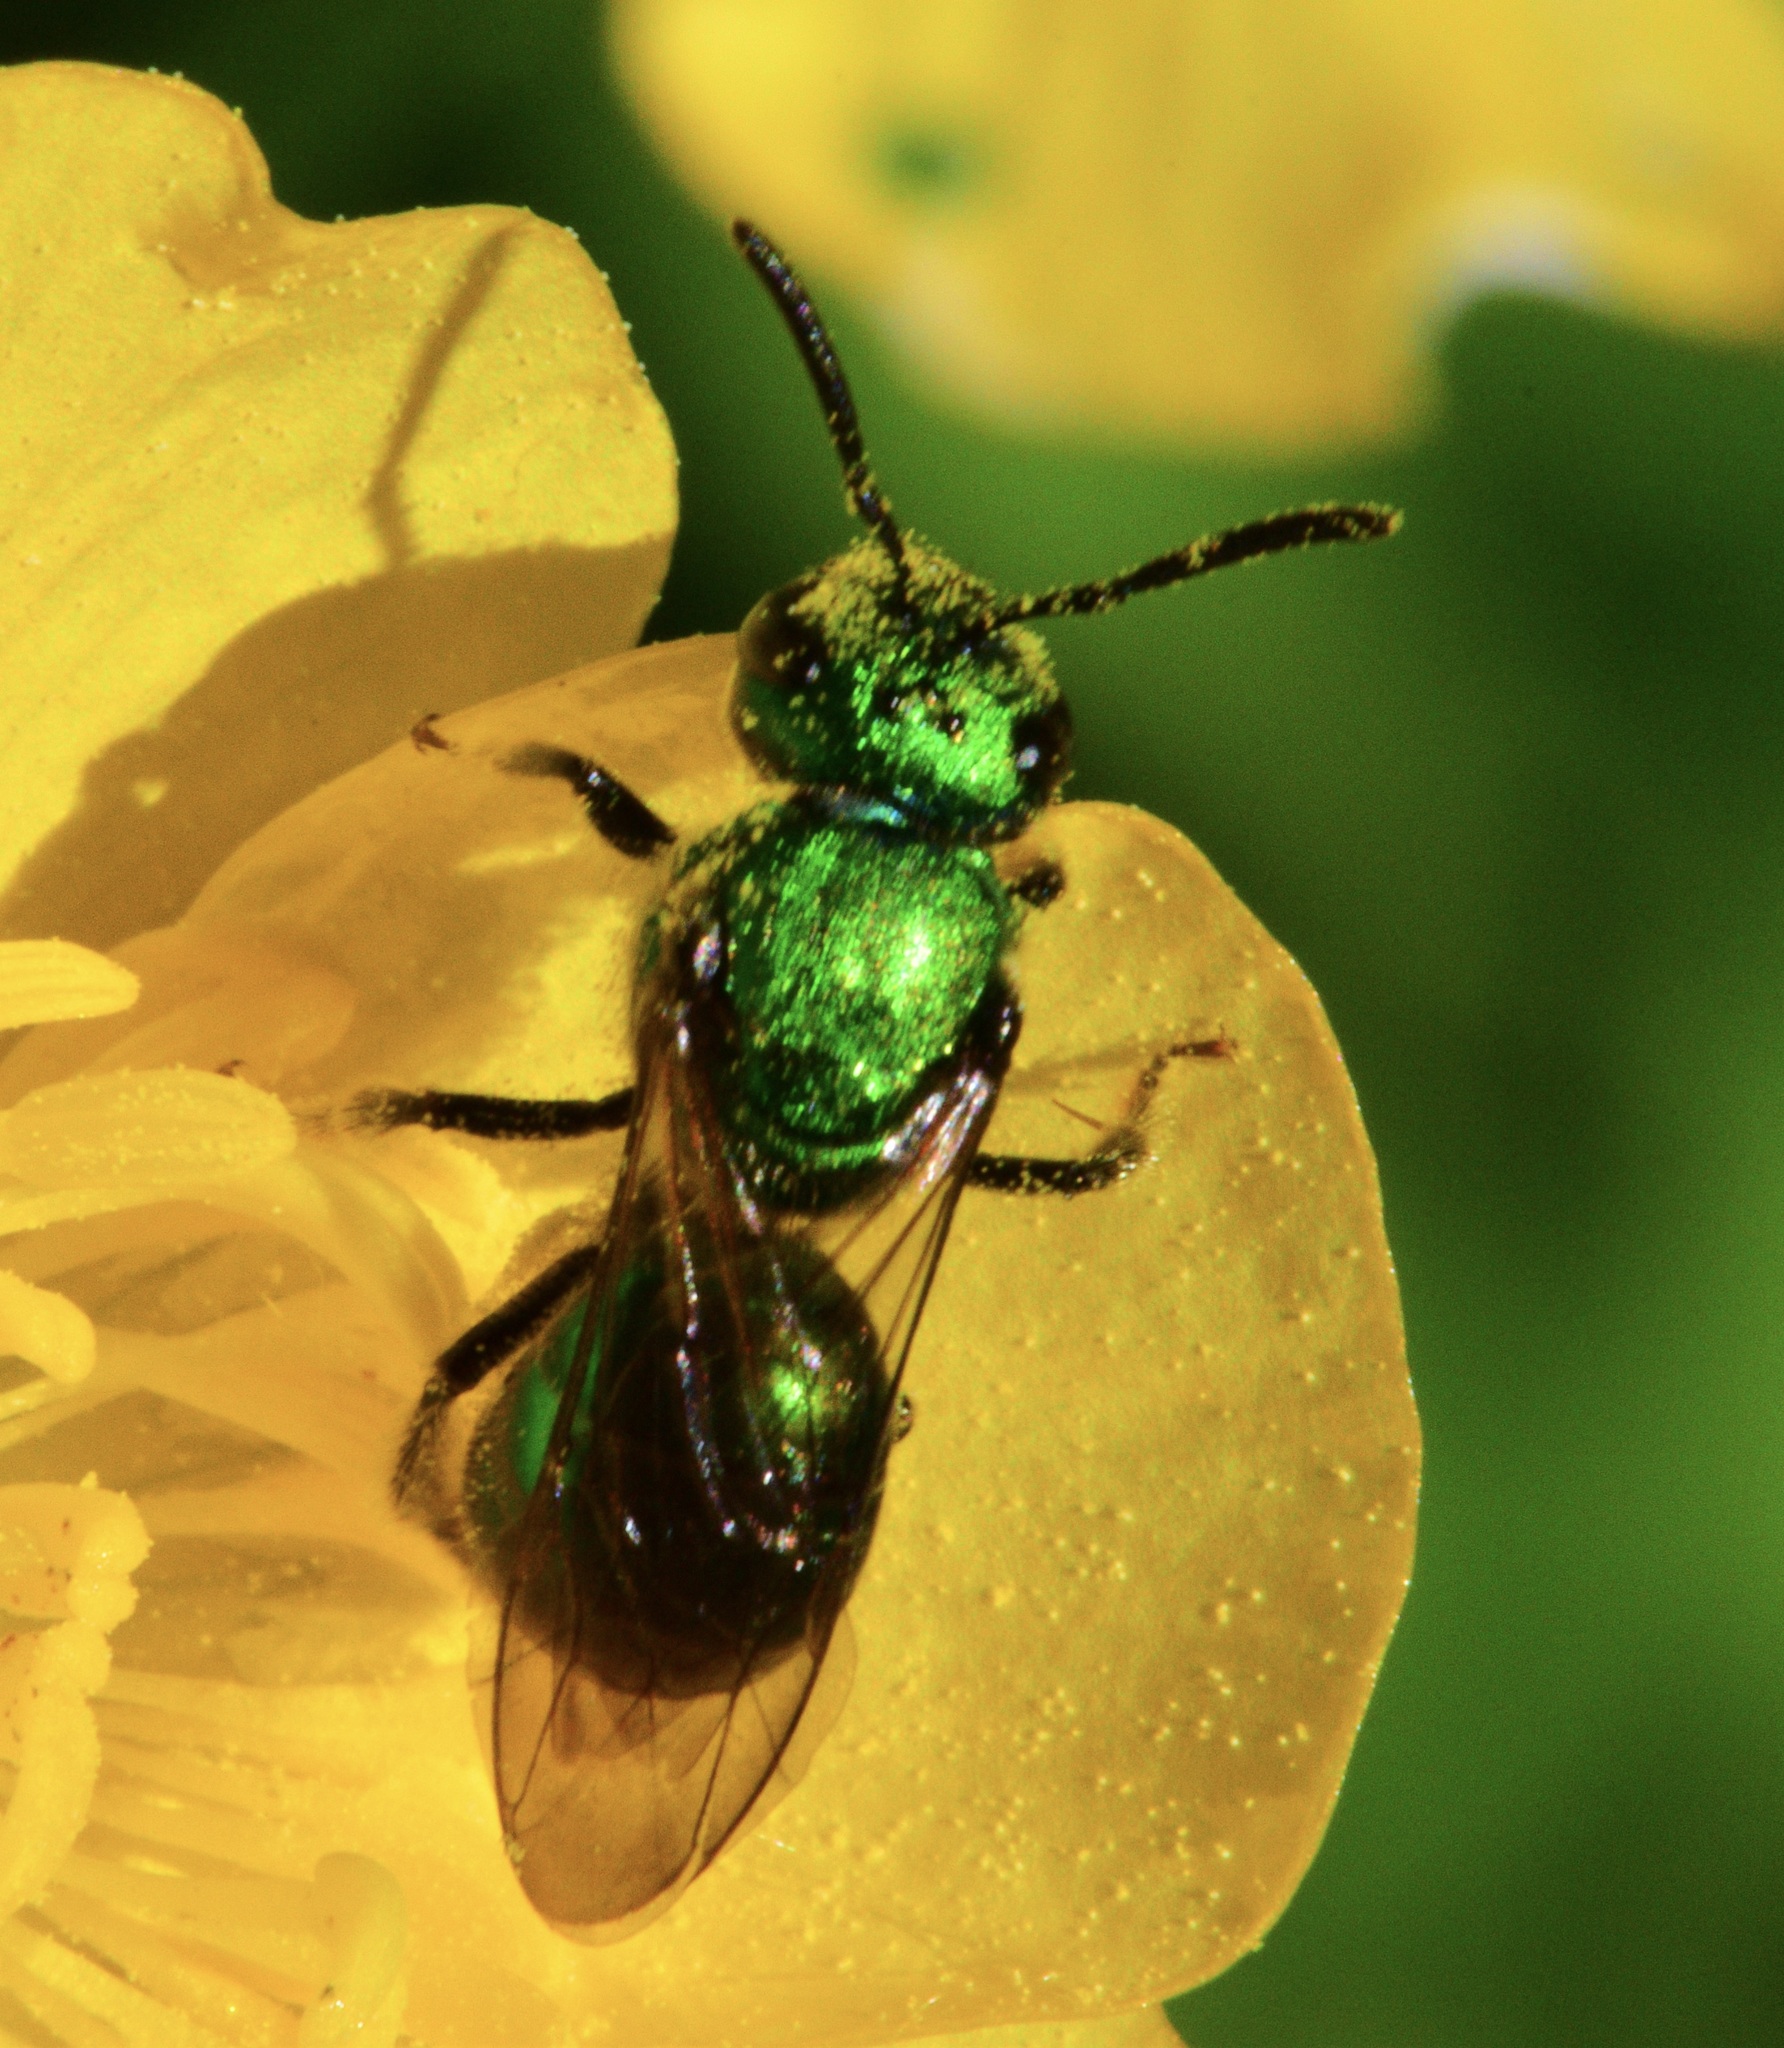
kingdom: Animalia
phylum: Arthropoda
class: Insecta
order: Hymenoptera
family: Halictidae
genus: Augochlora
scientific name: Augochlora pura
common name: Pure green sweat bee
